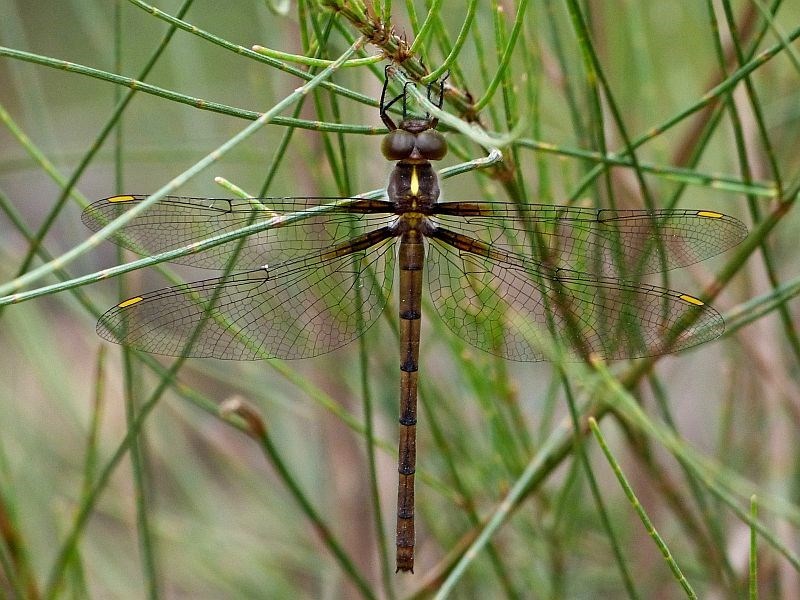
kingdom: Animalia
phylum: Arthropoda
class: Insecta
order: Odonata
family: Corduliidae
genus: Austrocordulia
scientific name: Austrocordulia refracta
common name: Eastern hawk
